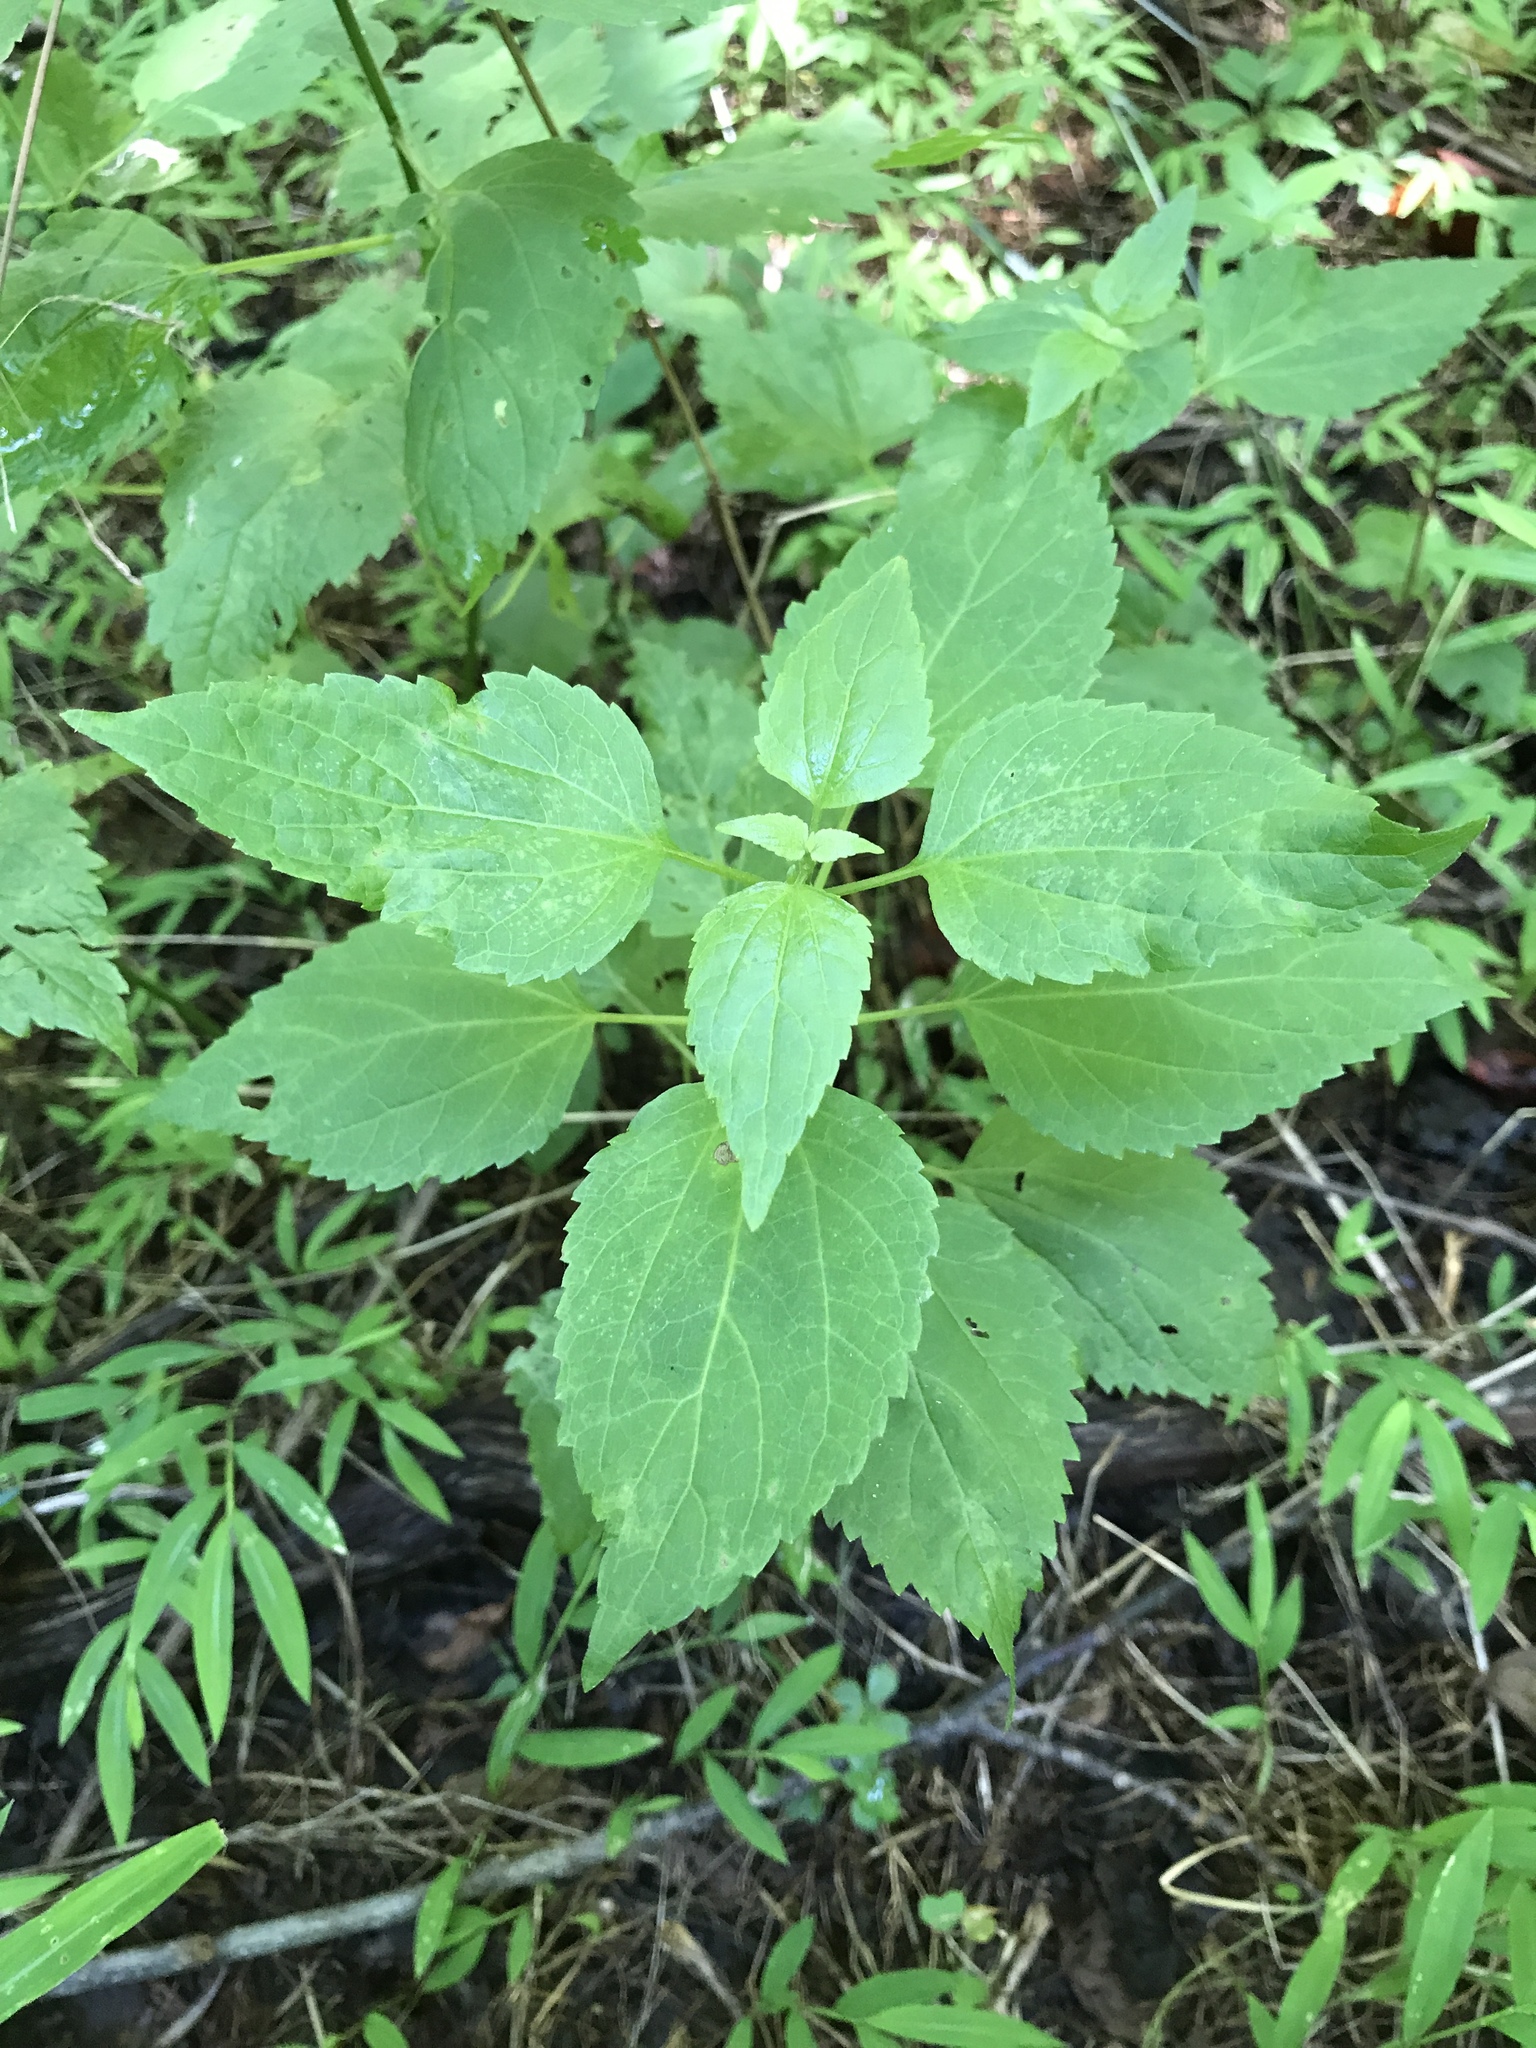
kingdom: Plantae
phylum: Tracheophyta
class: Magnoliopsida
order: Asterales
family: Asteraceae
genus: Ageratina
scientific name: Ageratina altissima
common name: White snakeroot
